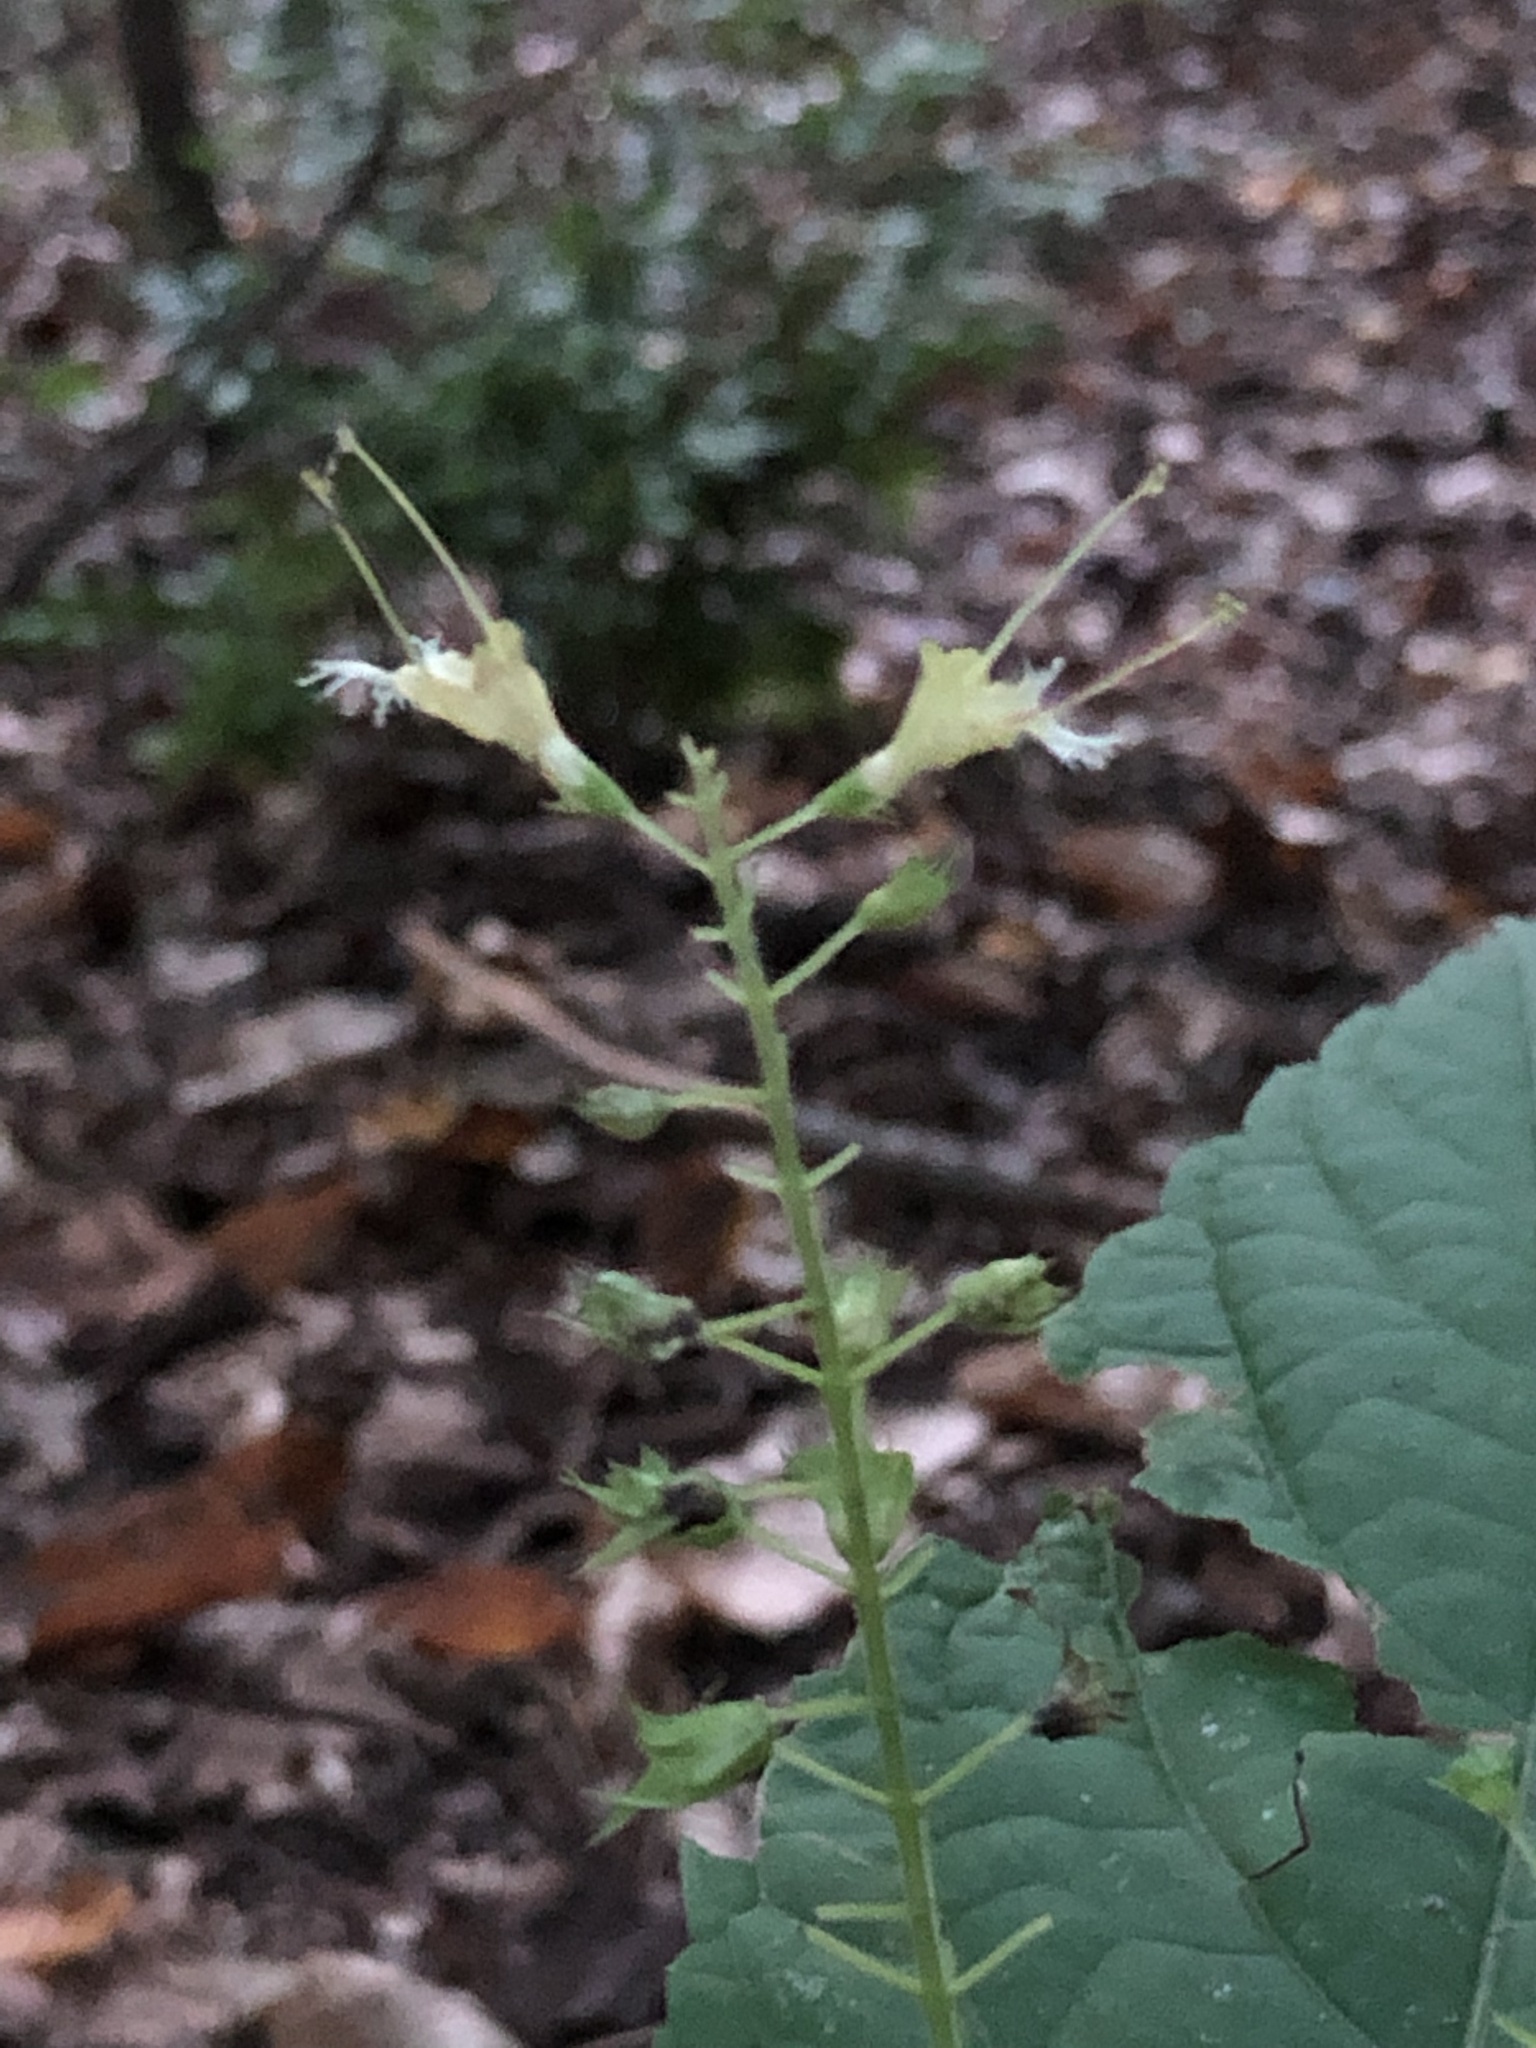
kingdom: Plantae
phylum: Tracheophyta
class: Magnoliopsida
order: Lamiales
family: Lamiaceae
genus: Collinsonia
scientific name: Collinsonia canadensis
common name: Northern horsebalm
